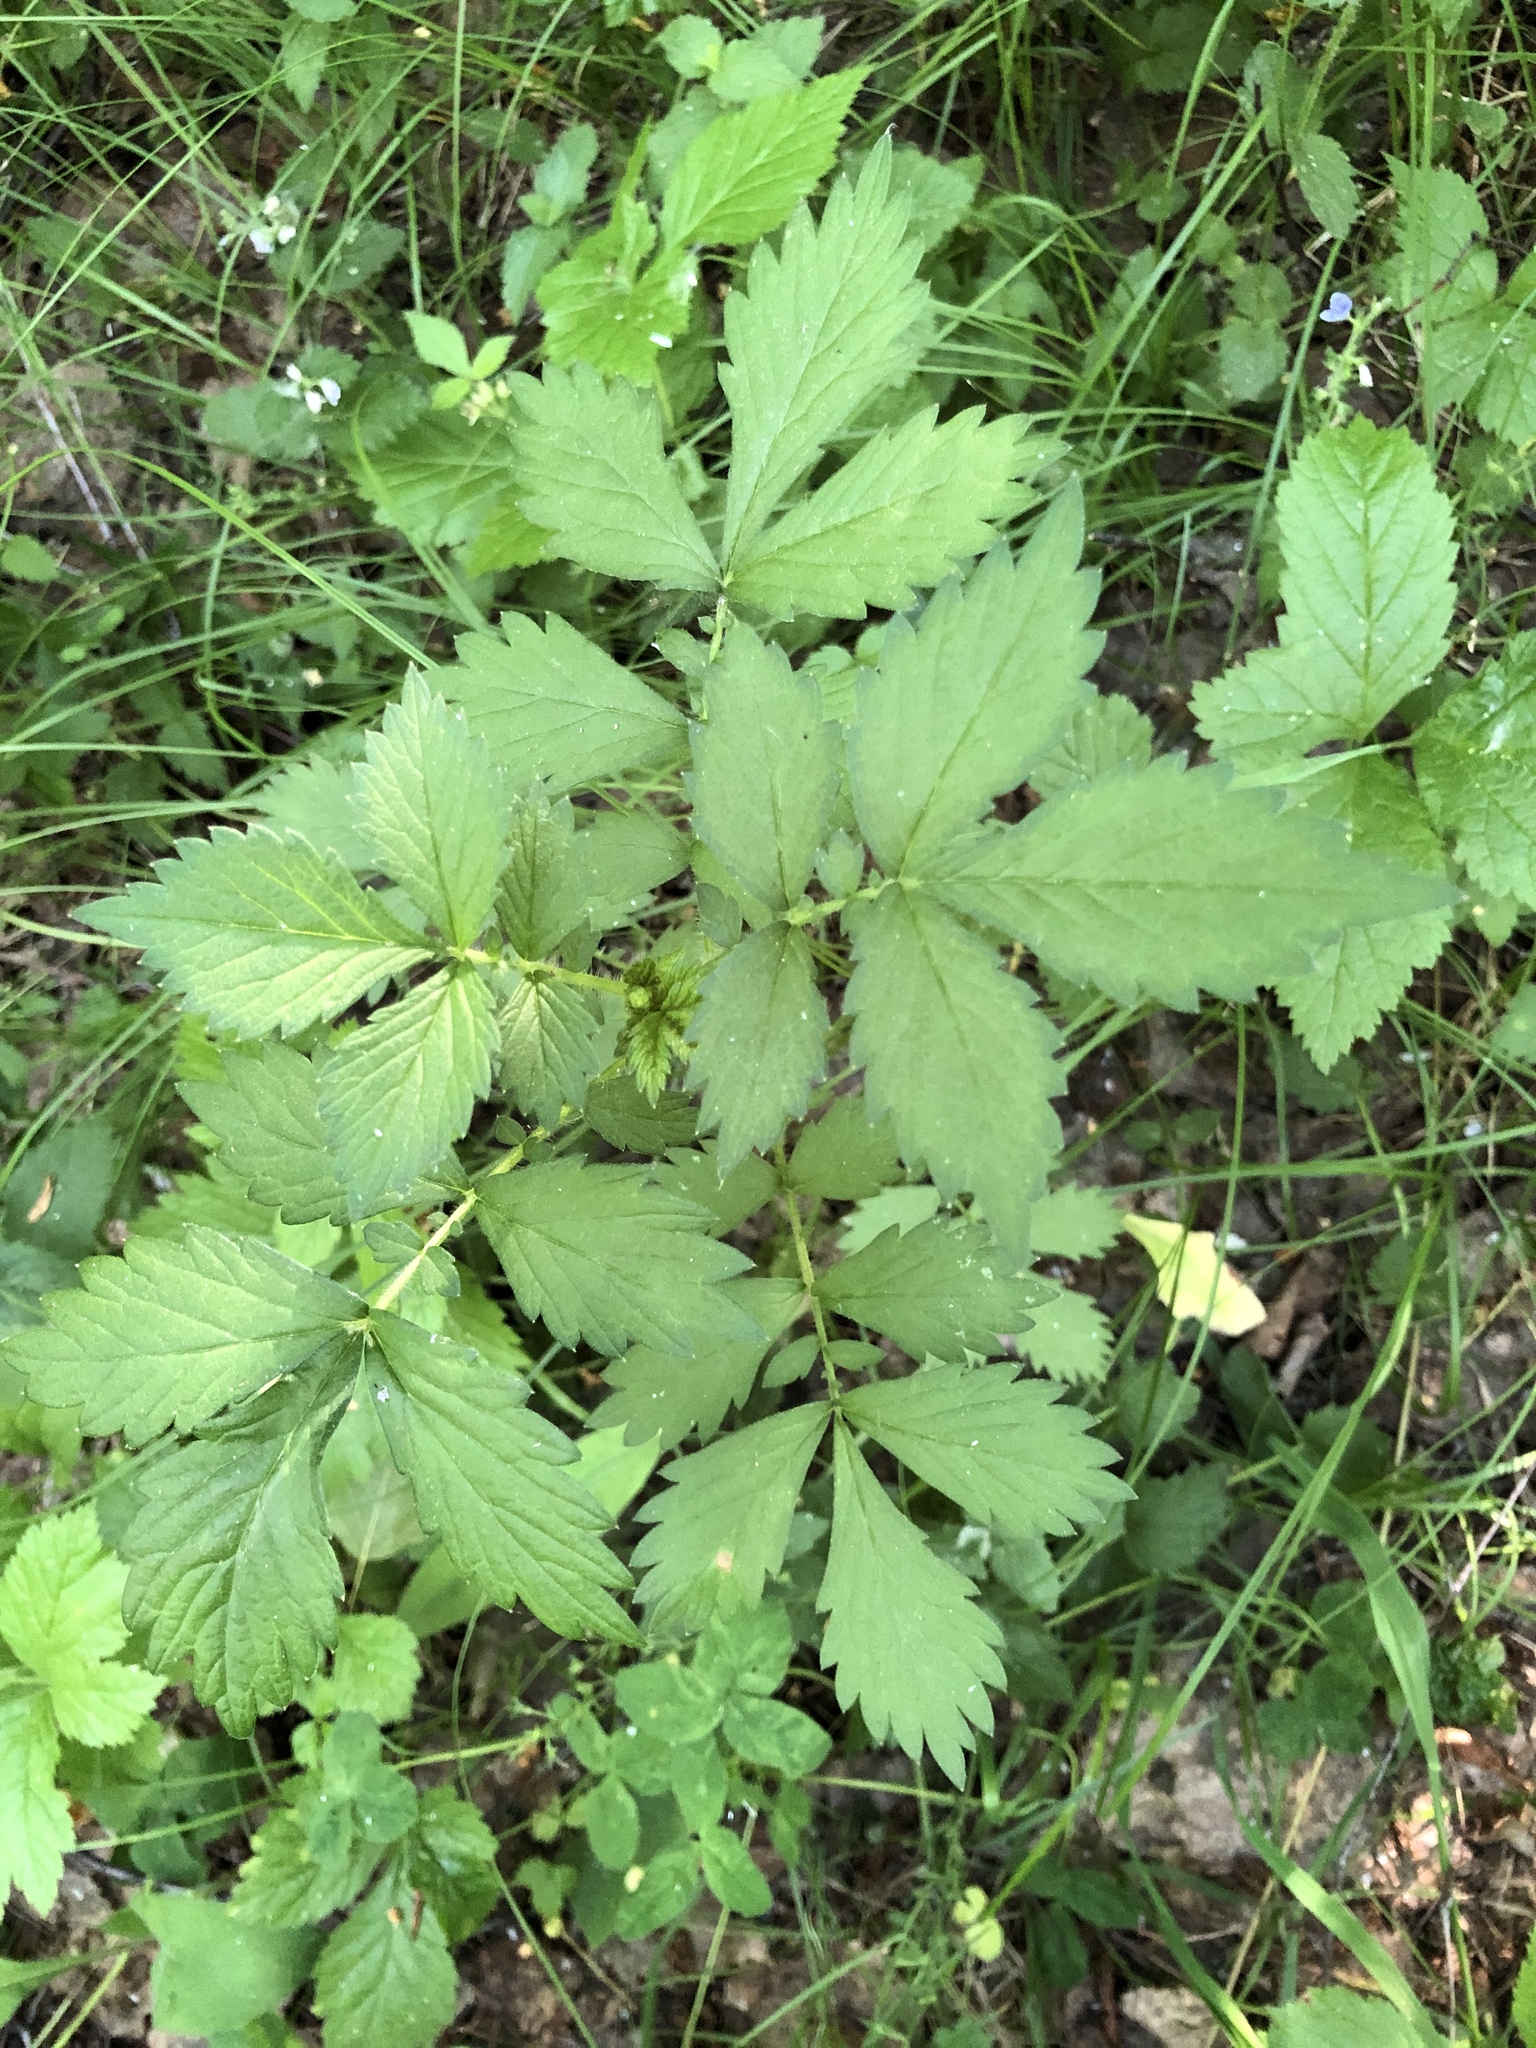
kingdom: Plantae
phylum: Tracheophyta
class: Magnoliopsida
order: Rosales
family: Rosaceae
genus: Agrimonia
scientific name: Agrimonia pilosa
